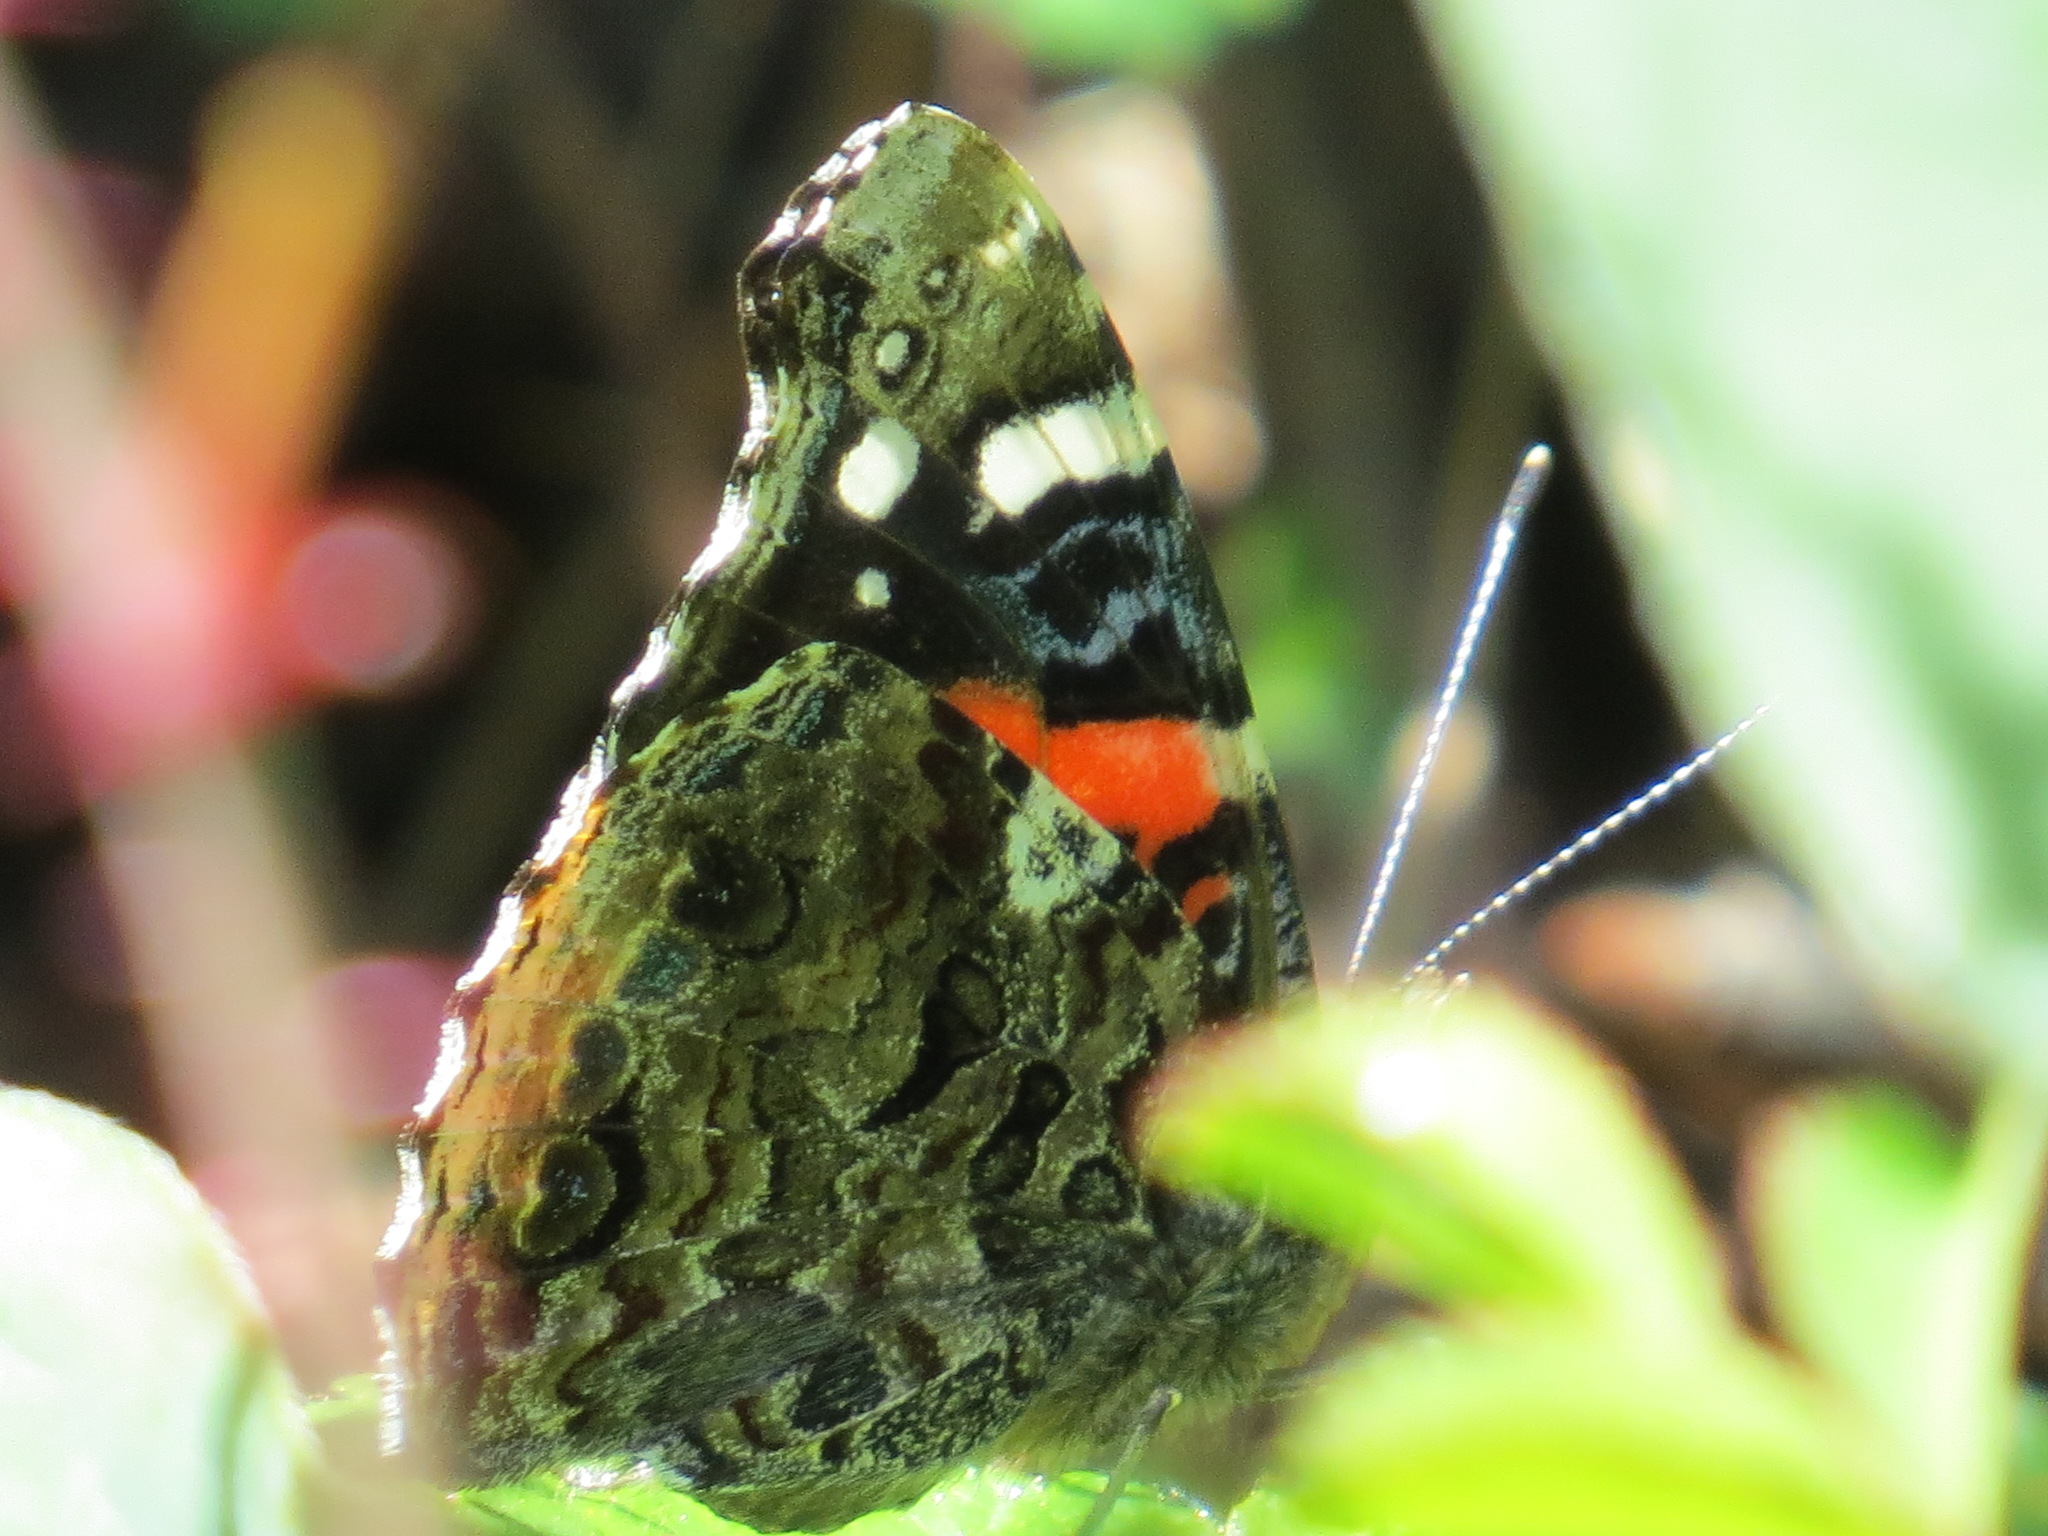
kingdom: Animalia
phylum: Arthropoda
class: Insecta
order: Lepidoptera
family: Nymphalidae
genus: Vanessa
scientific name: Vanessa atalanta
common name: Red admiral
